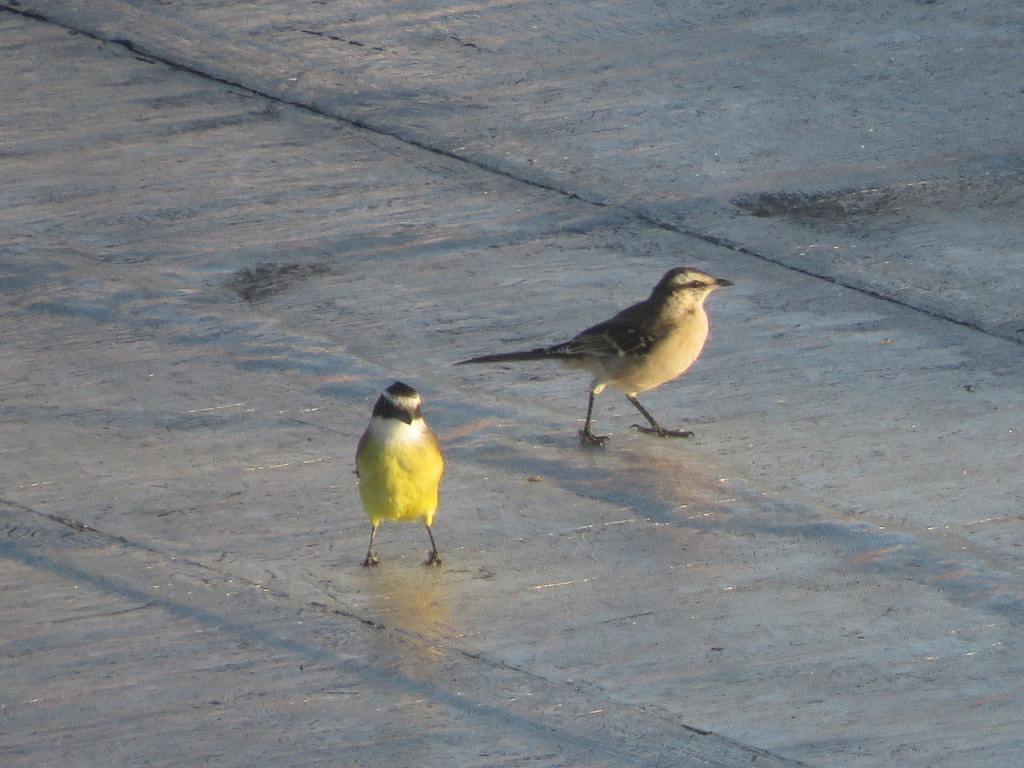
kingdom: Animalia
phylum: Chordata
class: Aves
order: Passeriformes
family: Mimidae
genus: Mimus
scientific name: Mimus saturninus
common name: Chalk-browed mockingbird
